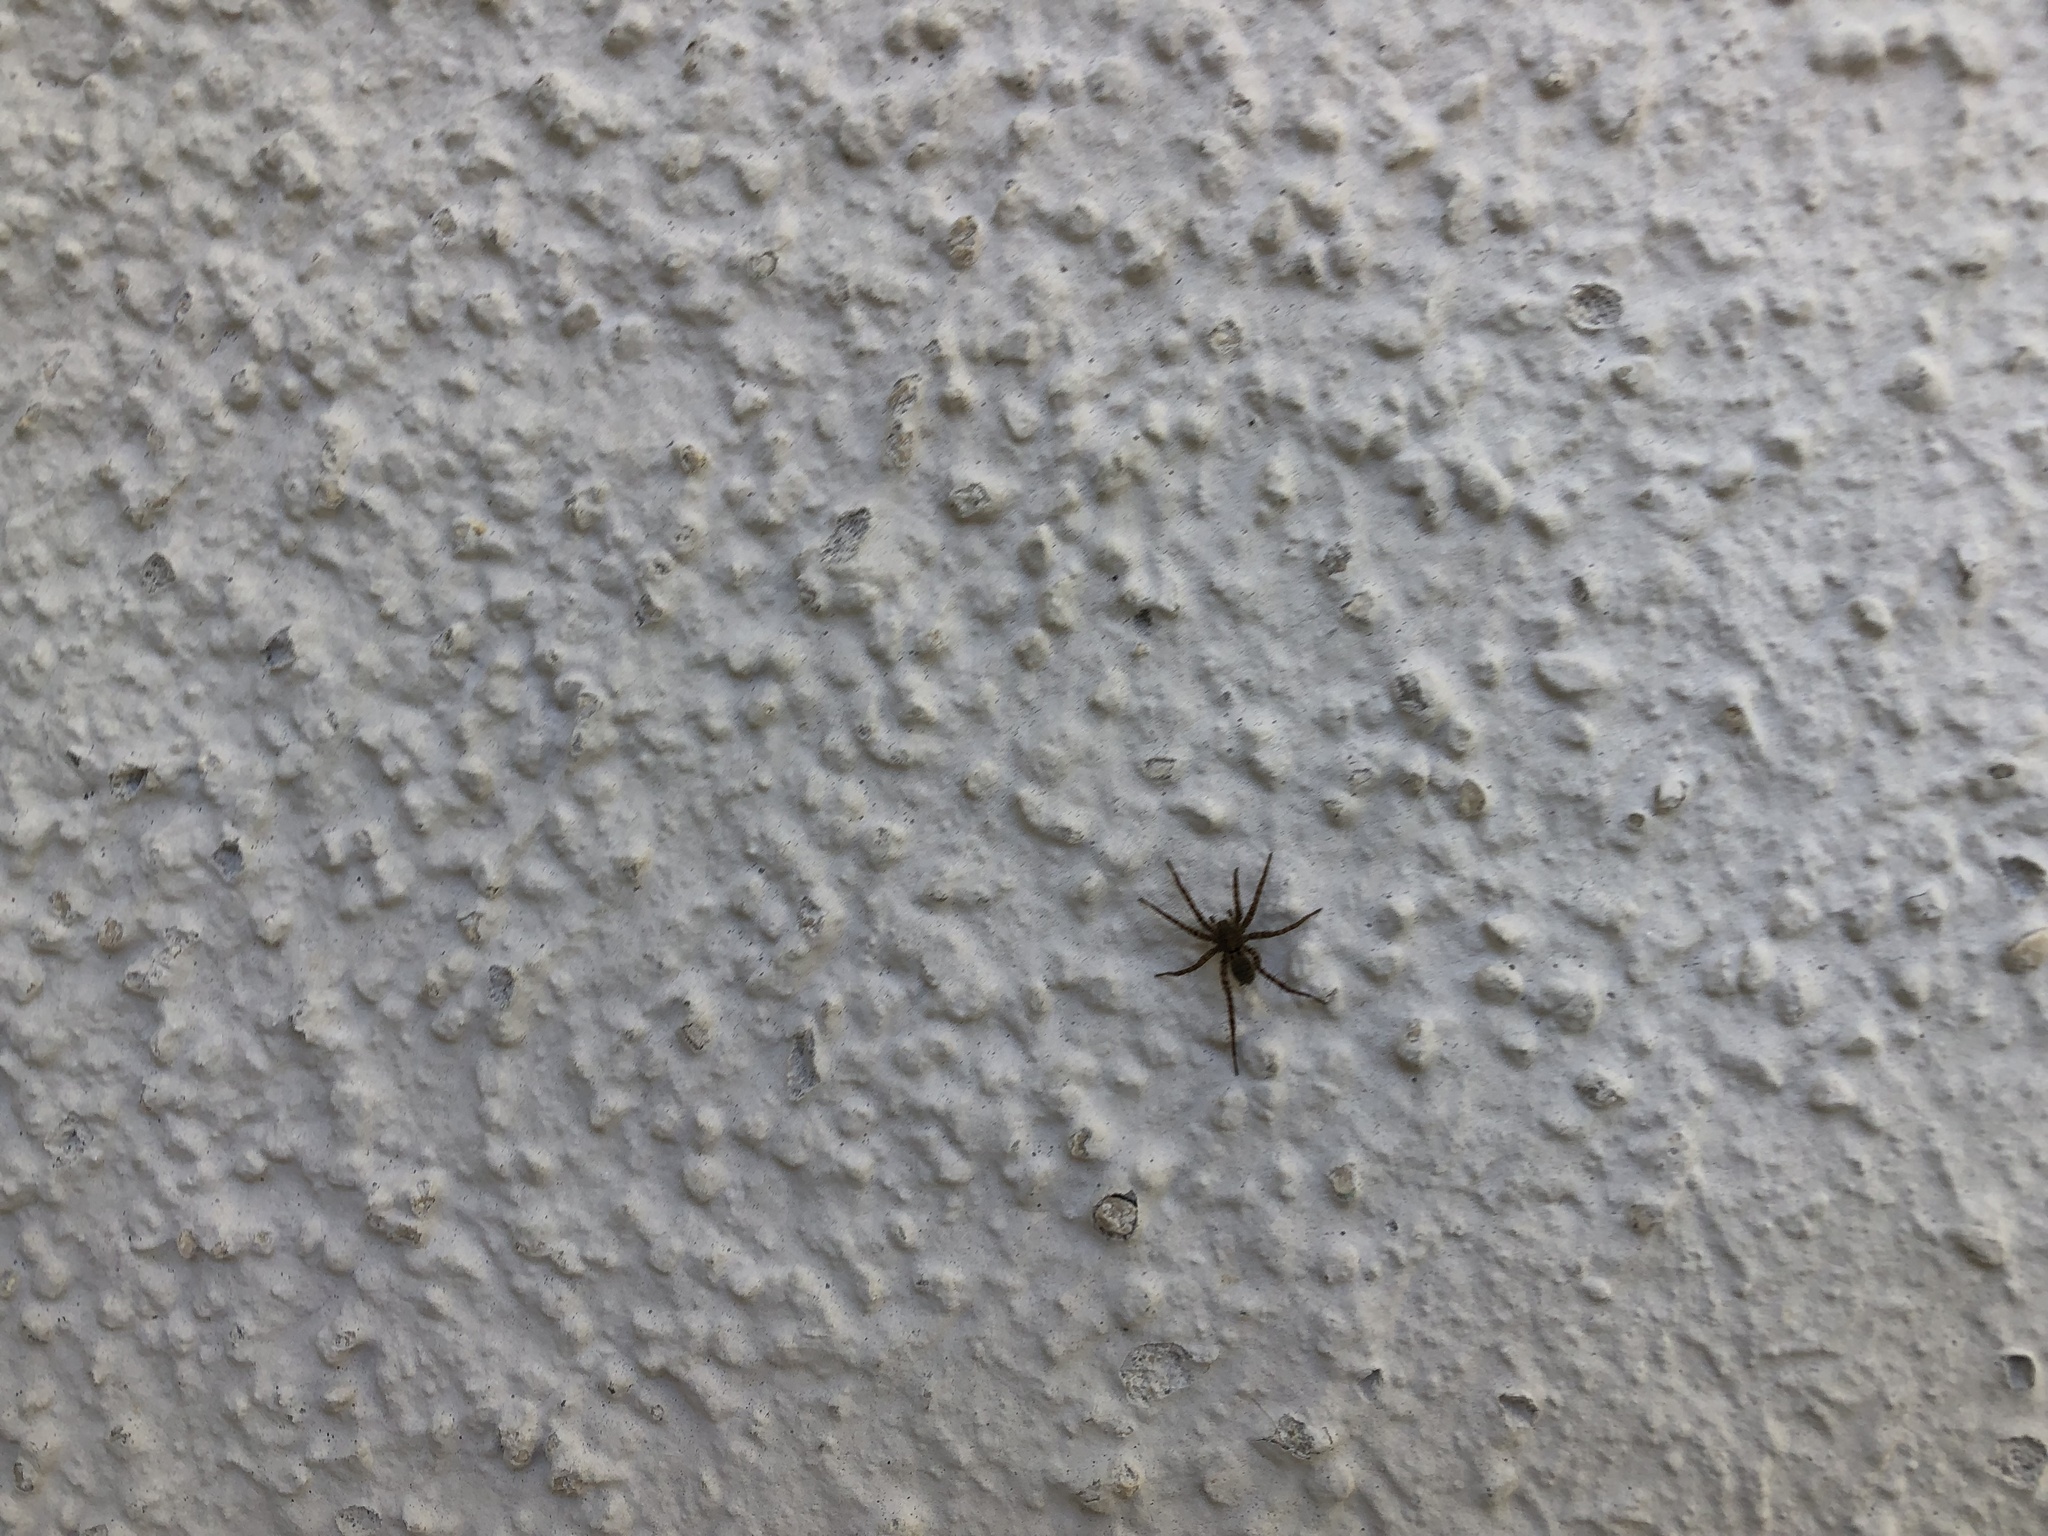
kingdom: Animalia
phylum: Arthropoda
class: Arachnida
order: Araneae
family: Lycosidae
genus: Pardosa
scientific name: Pardosa
